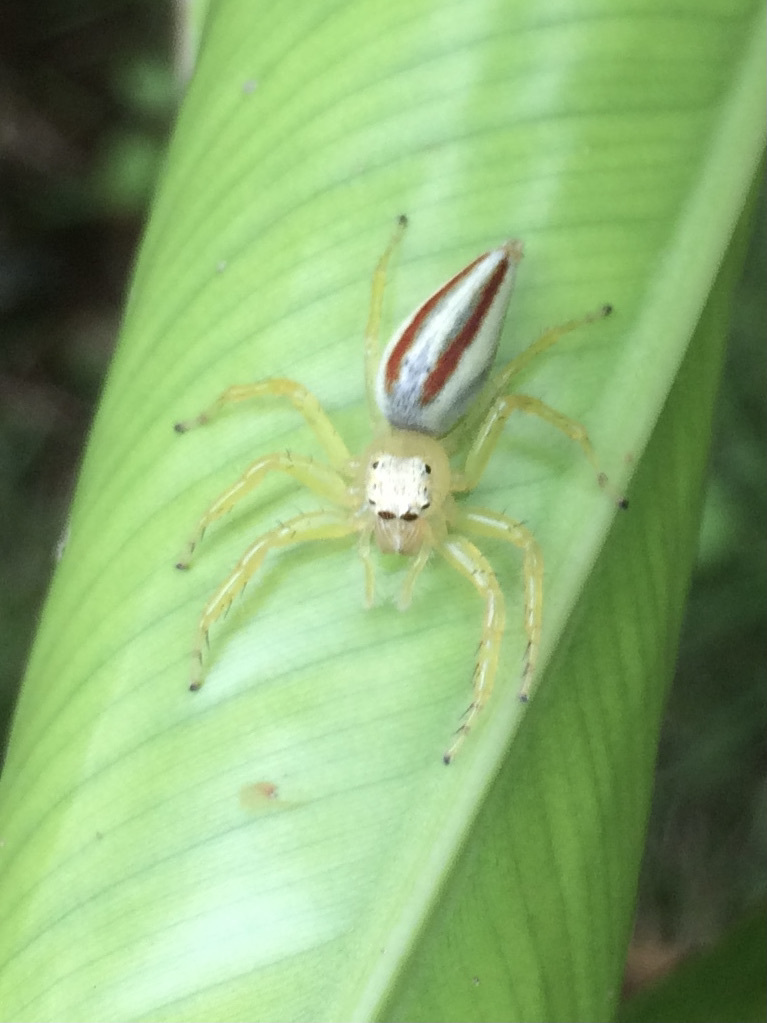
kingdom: Animalia
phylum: Arthropoda
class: Arachnida
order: Araneae
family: Salticidae
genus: Telamonia
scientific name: Telamonia dimidiata
